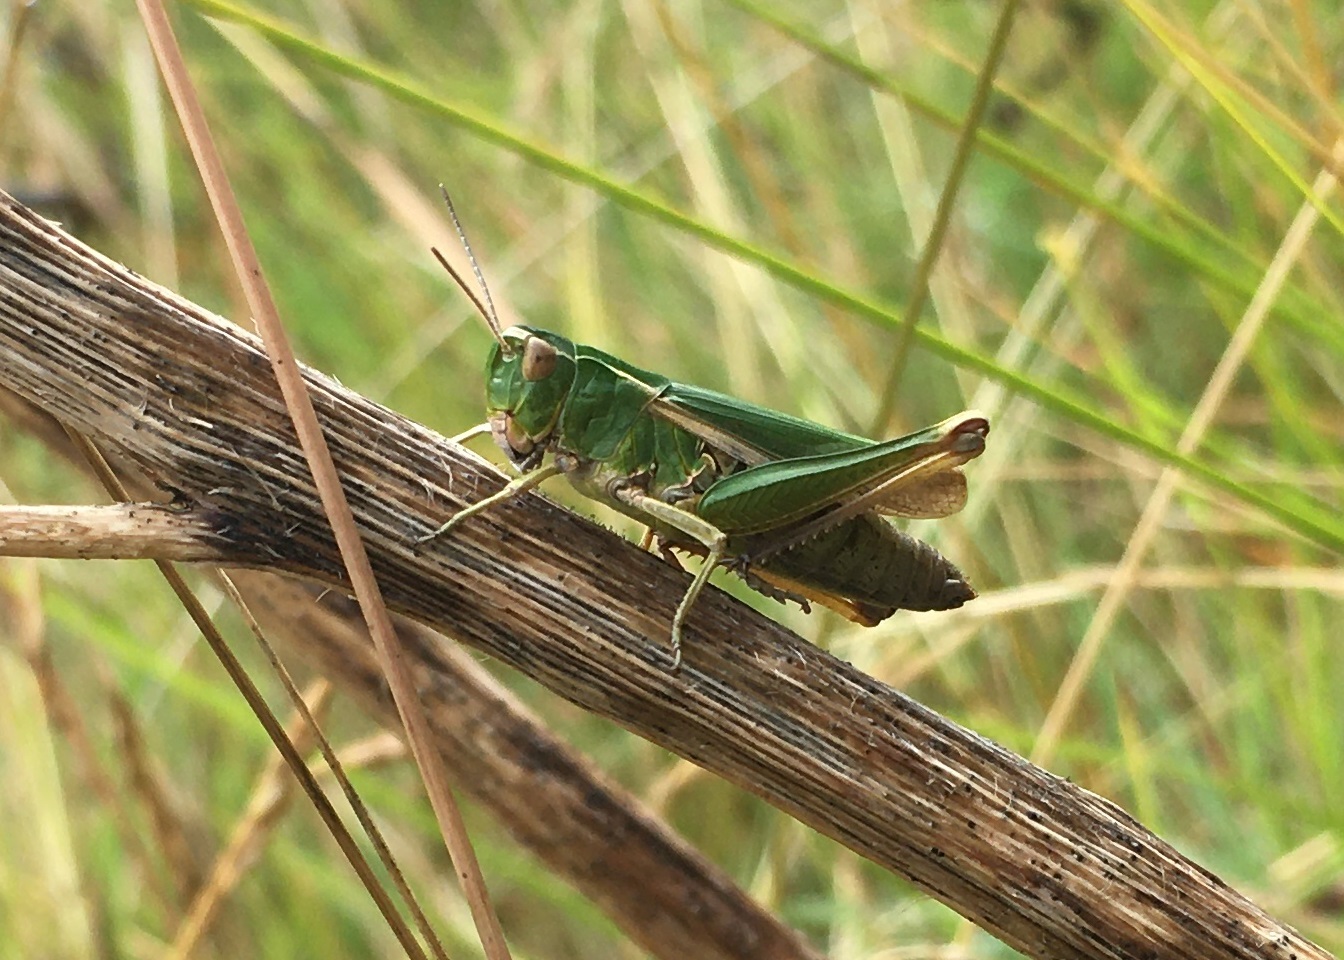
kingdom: Animalia
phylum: Arthropoda
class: Insecta
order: Orthoptera
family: Acrididae
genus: Omocestus
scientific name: Omocestus viridulus
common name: Common green grasshopper
